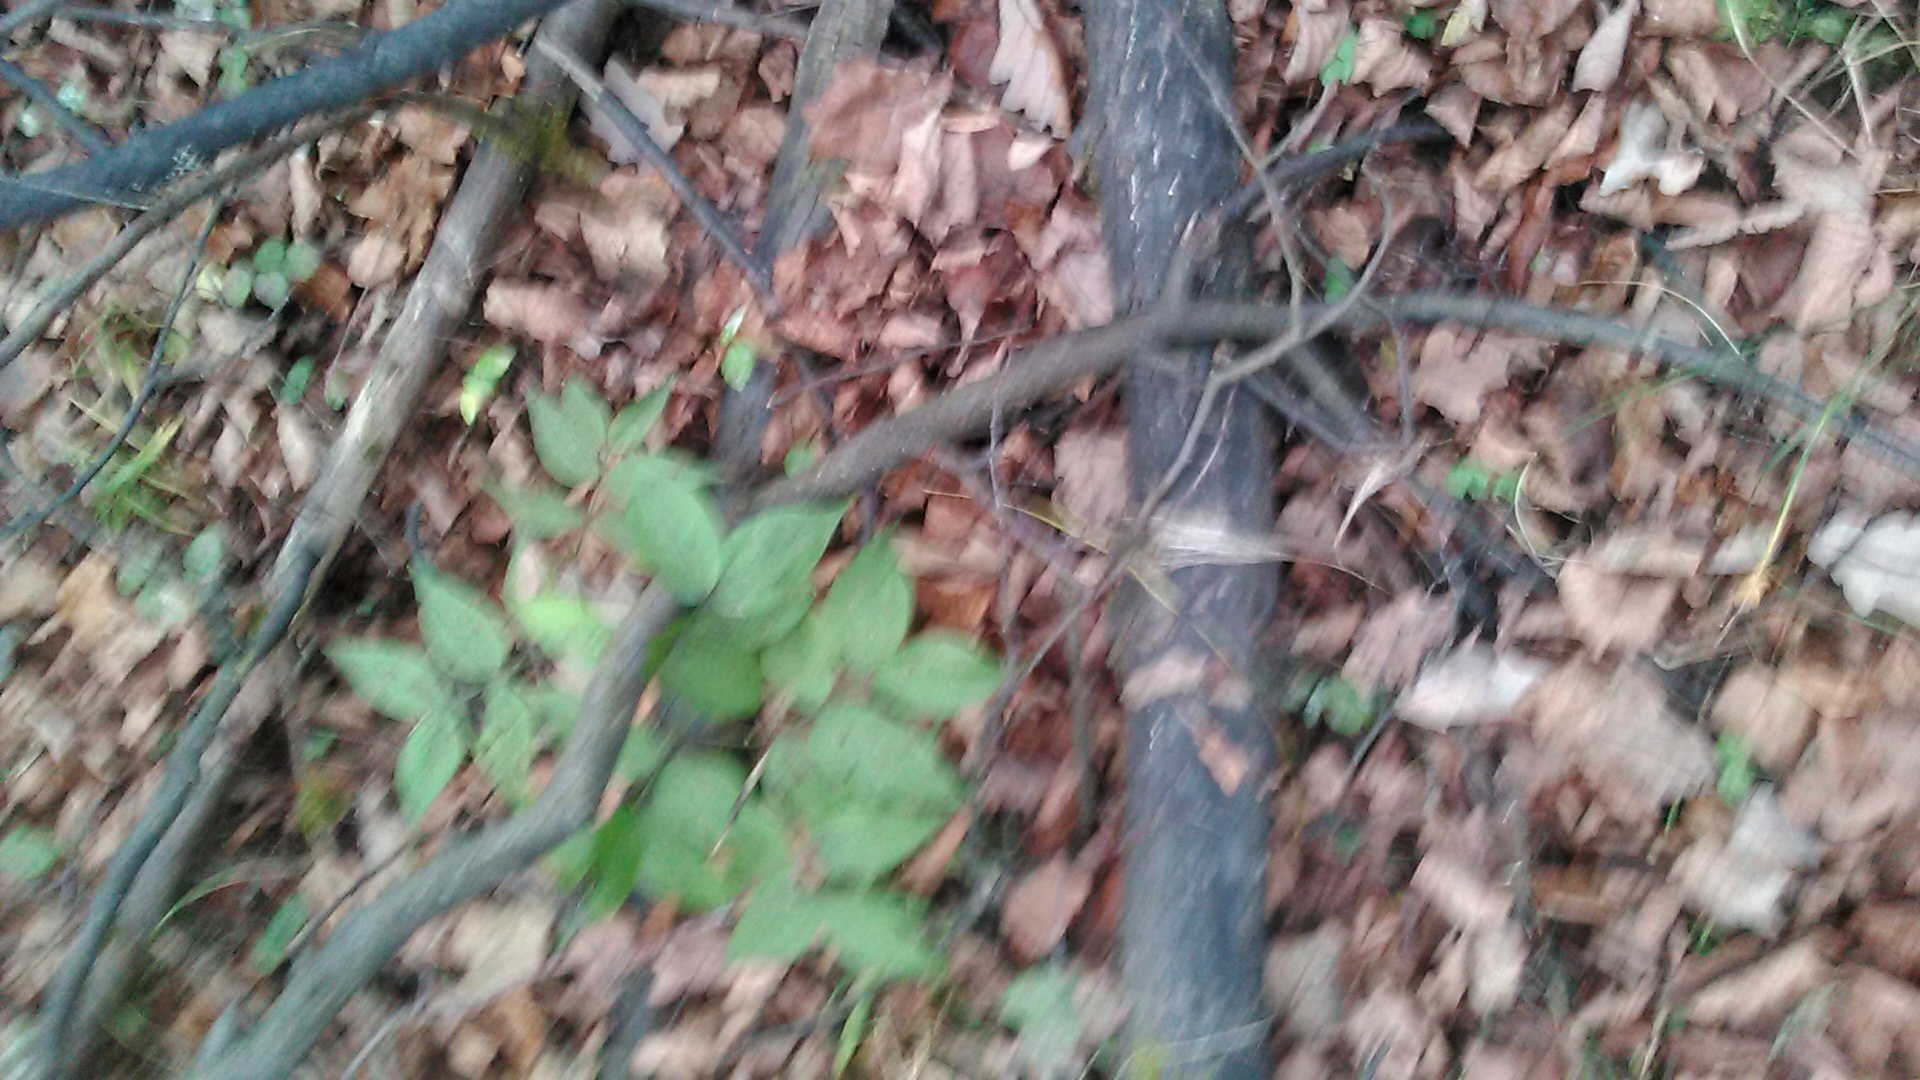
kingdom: Plantae
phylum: Tracheophyta
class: Magnoliopsida
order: Fabales
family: Fabaceae
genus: Lathyrus
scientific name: Lathyrus vernus
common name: Spring pea
